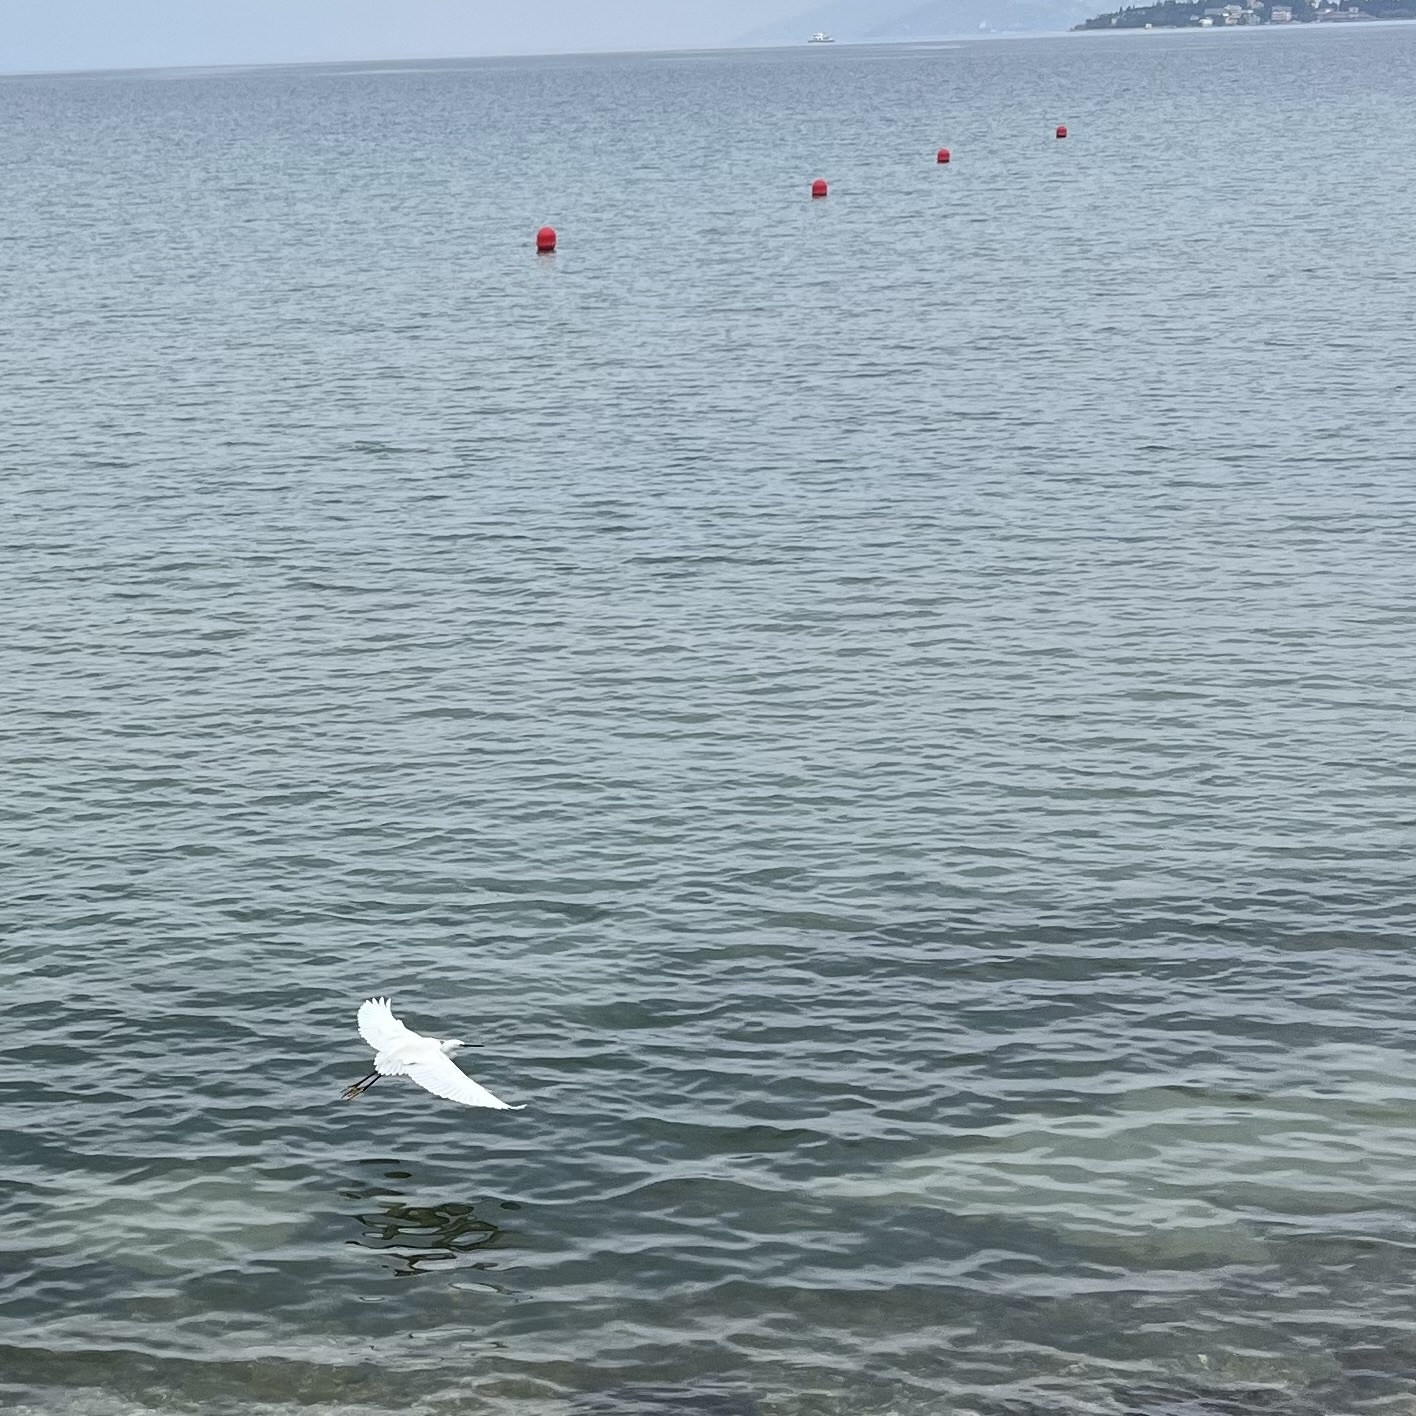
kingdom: Animalia
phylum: Chordata
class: Aves
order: Pelecaniformes
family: Ardeidae
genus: Egretta
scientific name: Egretta garzetta
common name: Little egret
